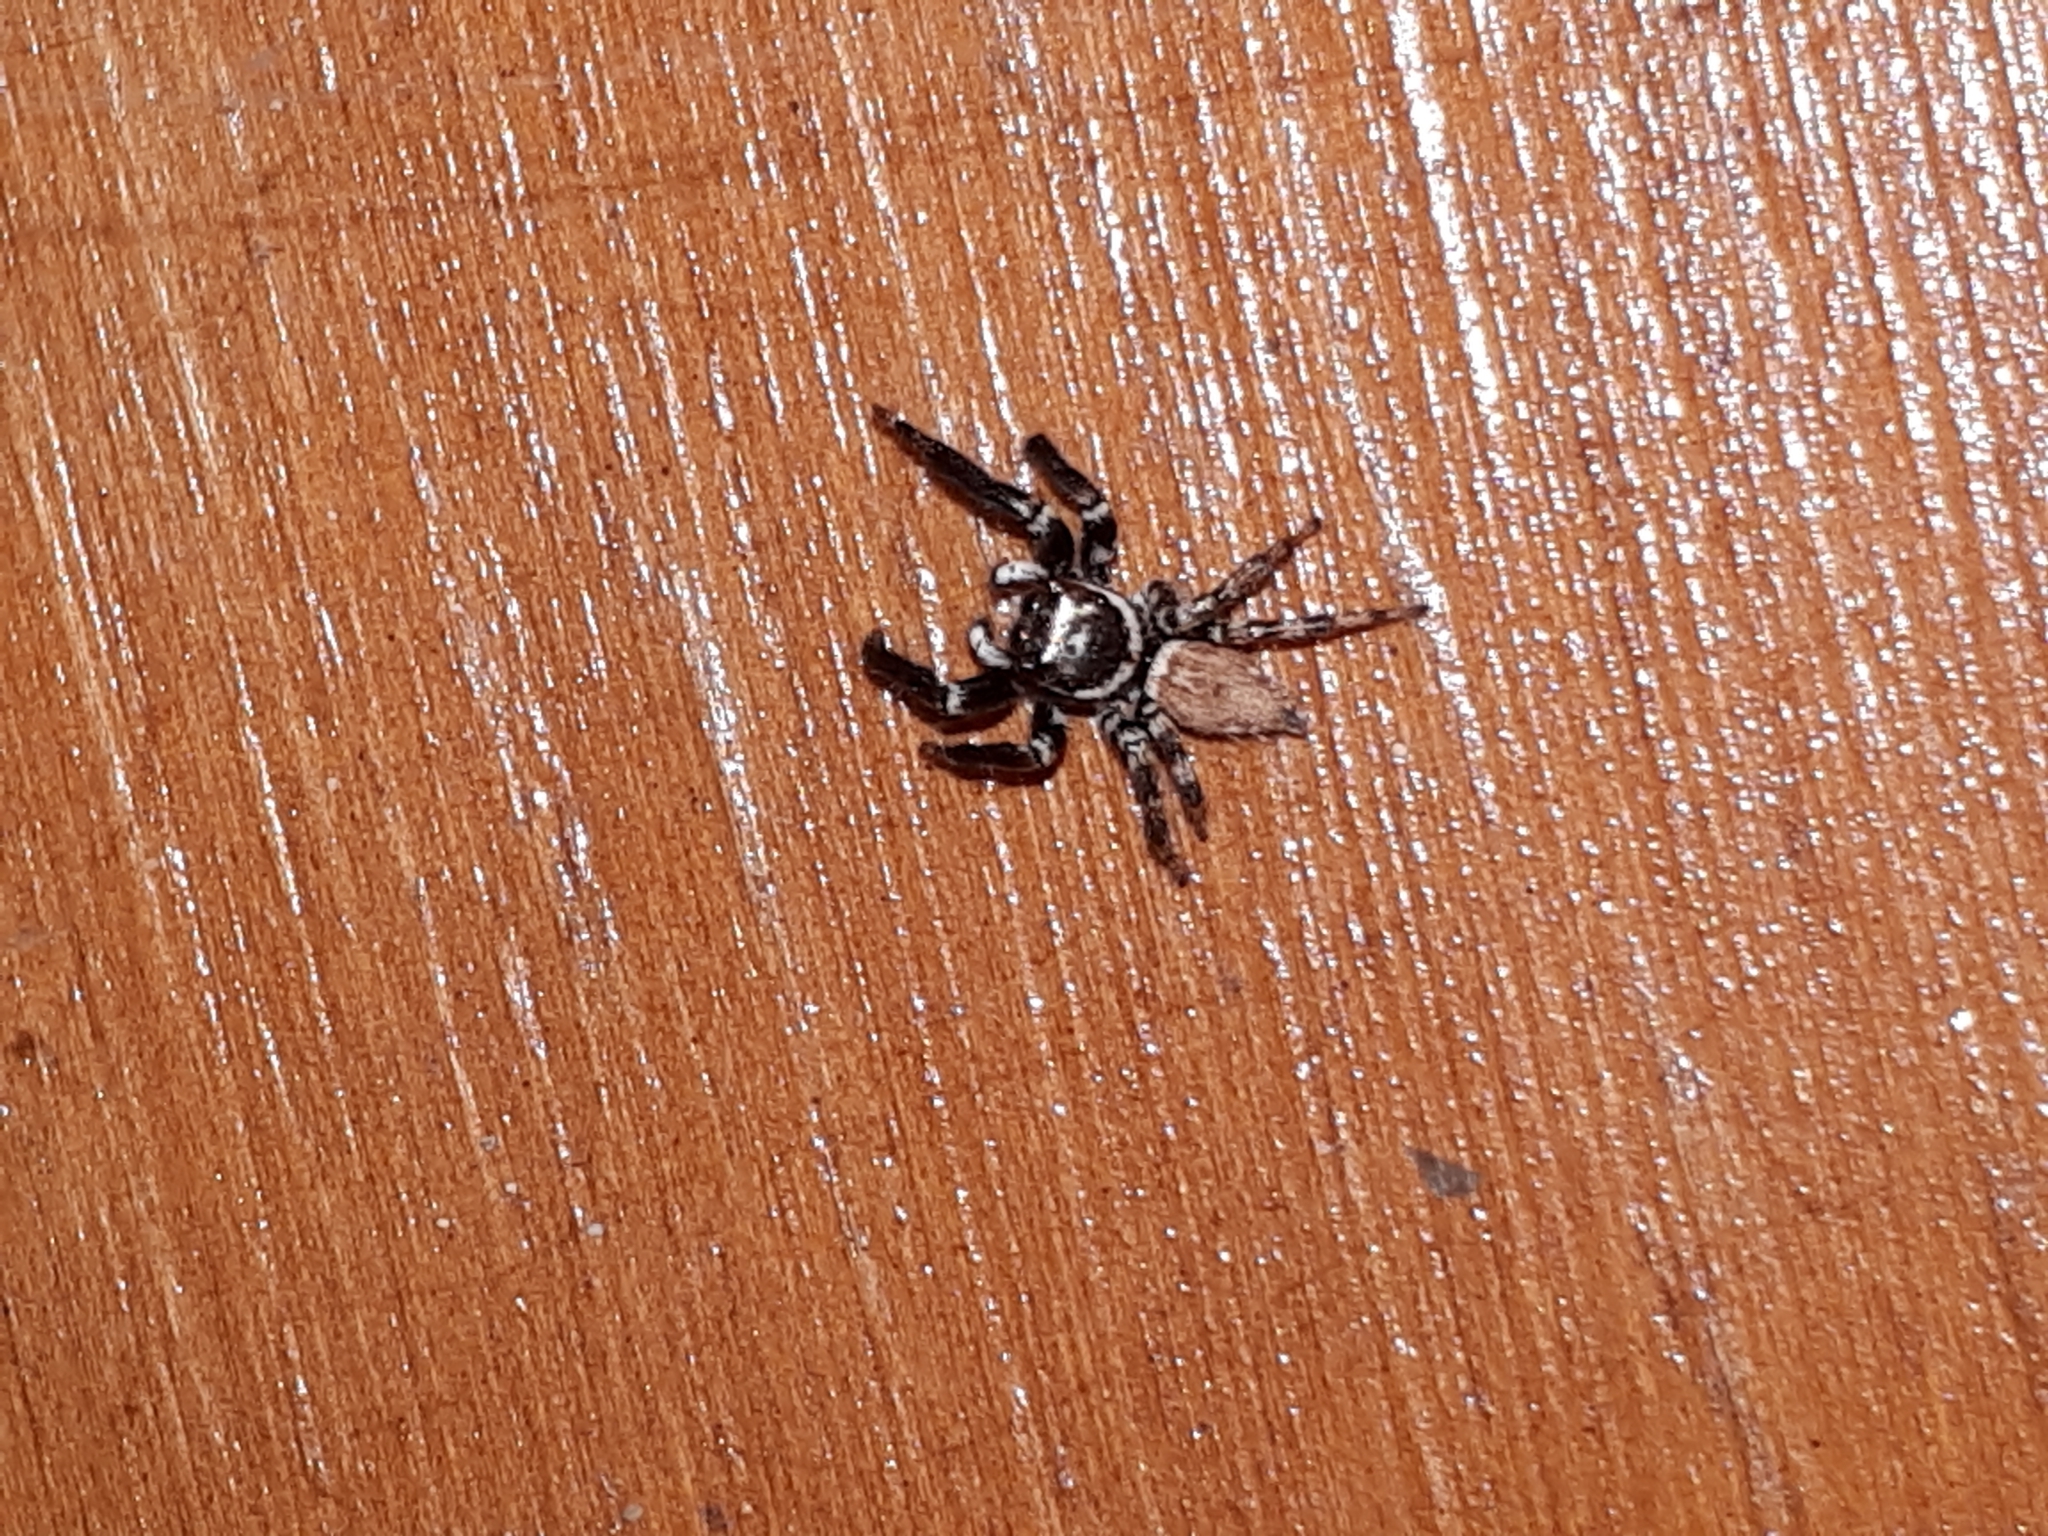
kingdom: Animalia
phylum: Arthropoda
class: Arachnida
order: Araneae
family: Salticidae
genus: Evarcha
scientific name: Evarcha jucunda
